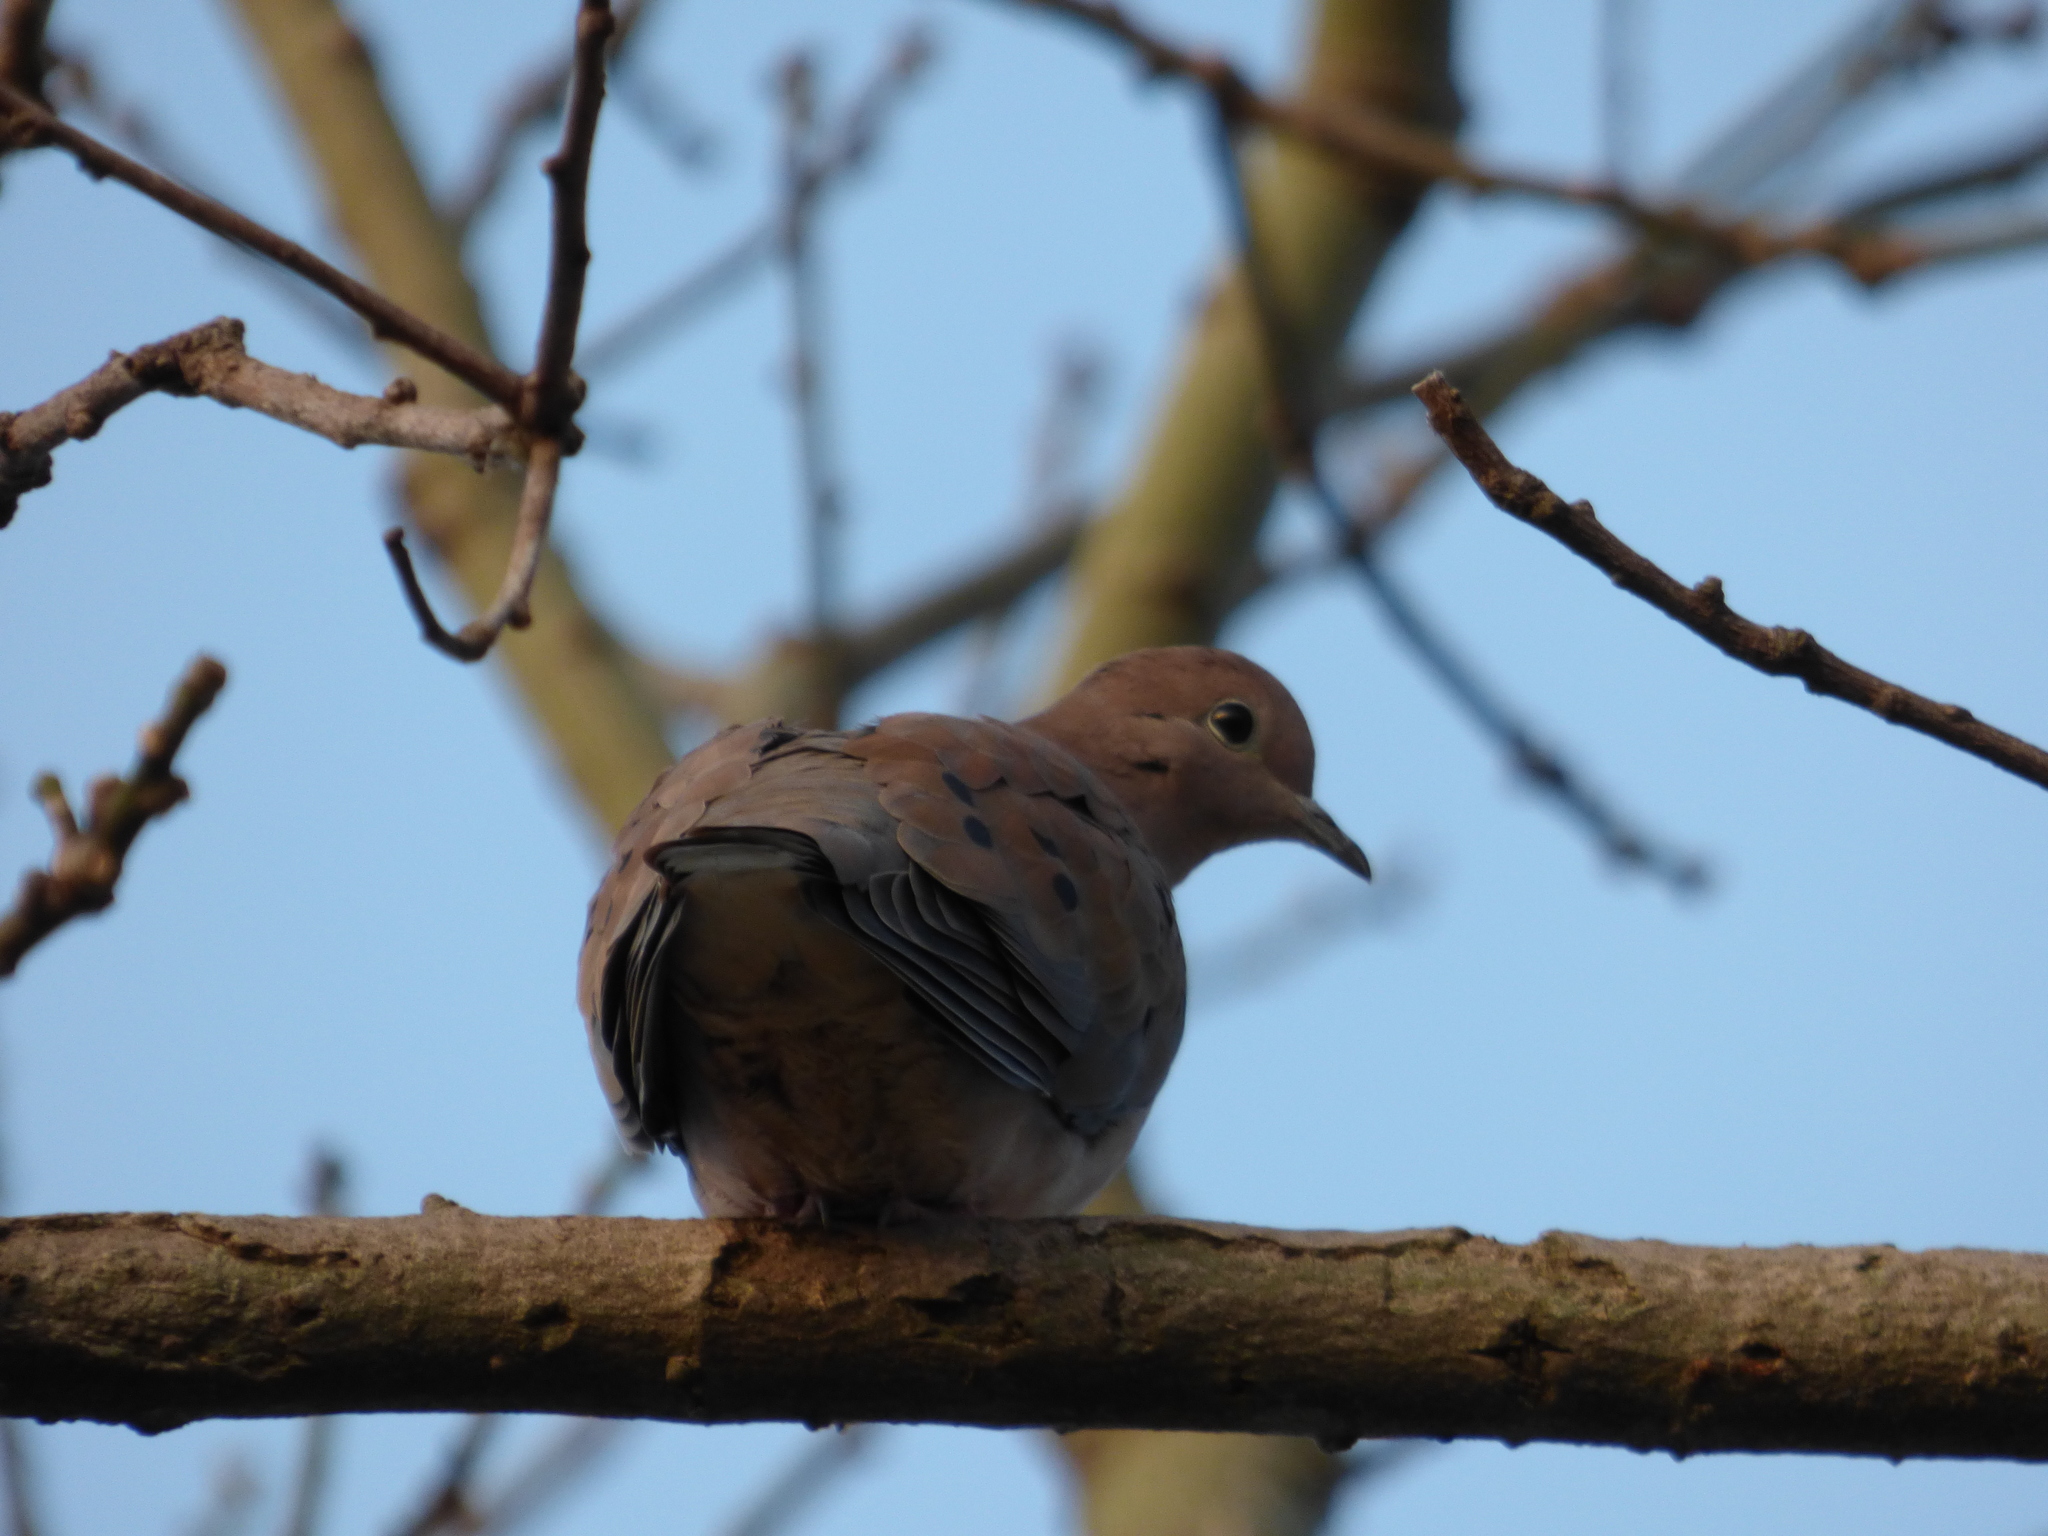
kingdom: Animalia
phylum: Chordata
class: Aves
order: Columbiformes
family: Columbidae
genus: Zenaida
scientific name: Zenaida auriculata
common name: Eared dove
